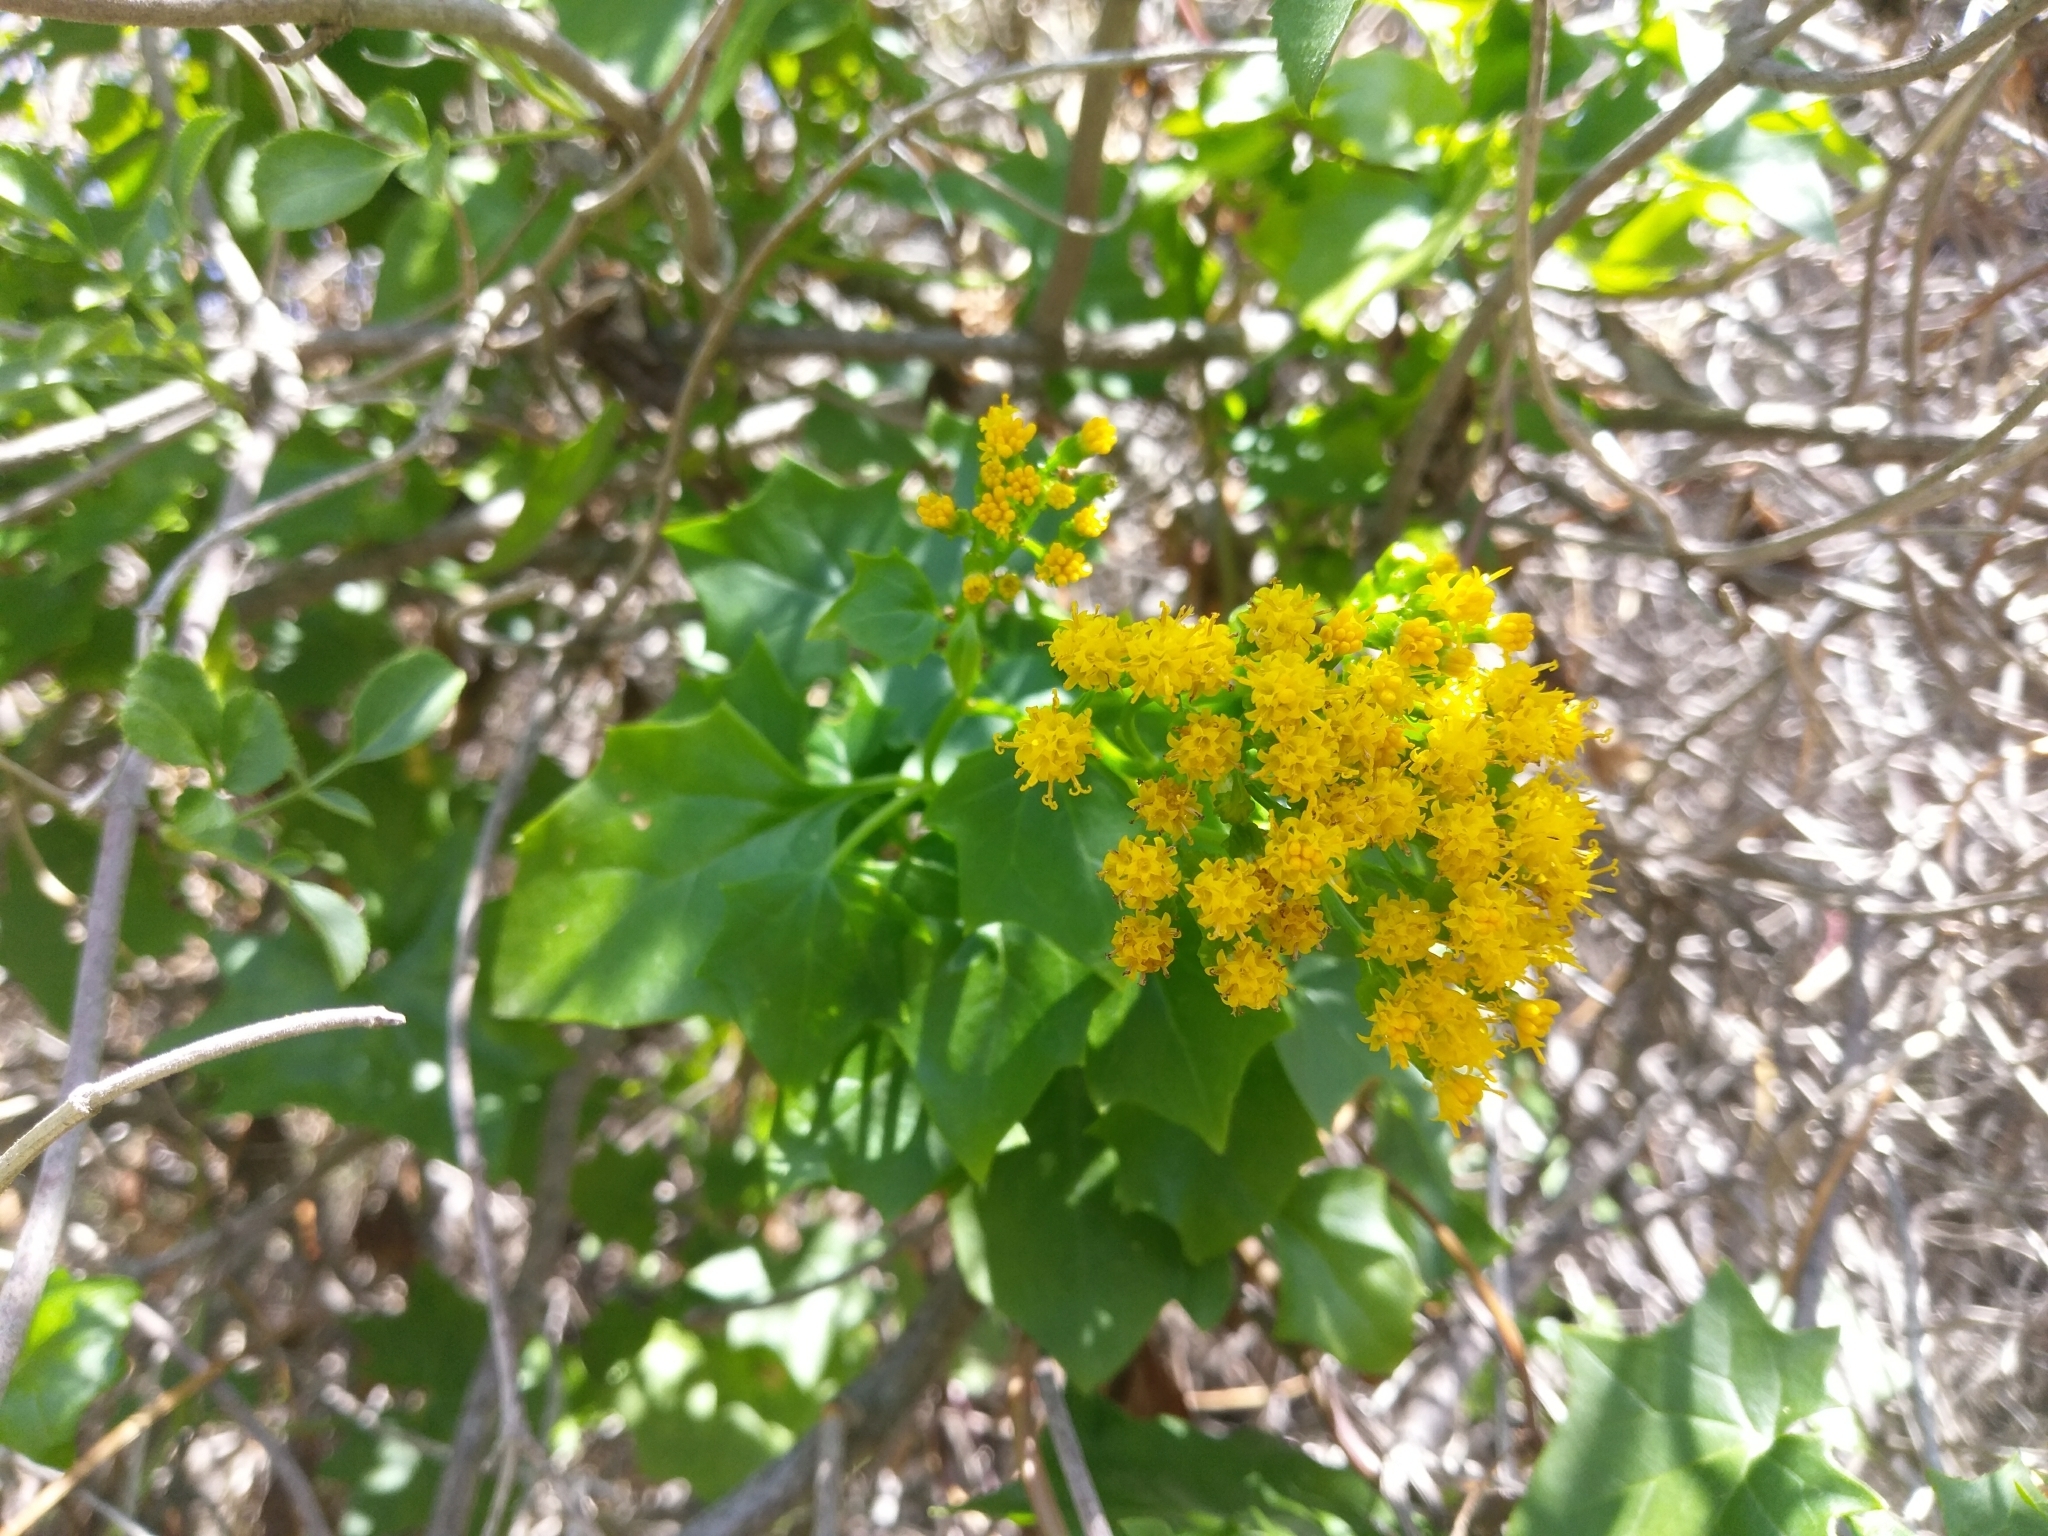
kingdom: Plantae
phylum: Tracheophyta
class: Magnoliopsida
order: Asterales
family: Asteraceae
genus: Delairea
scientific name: Delairea odorata
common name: Cape-ivy
